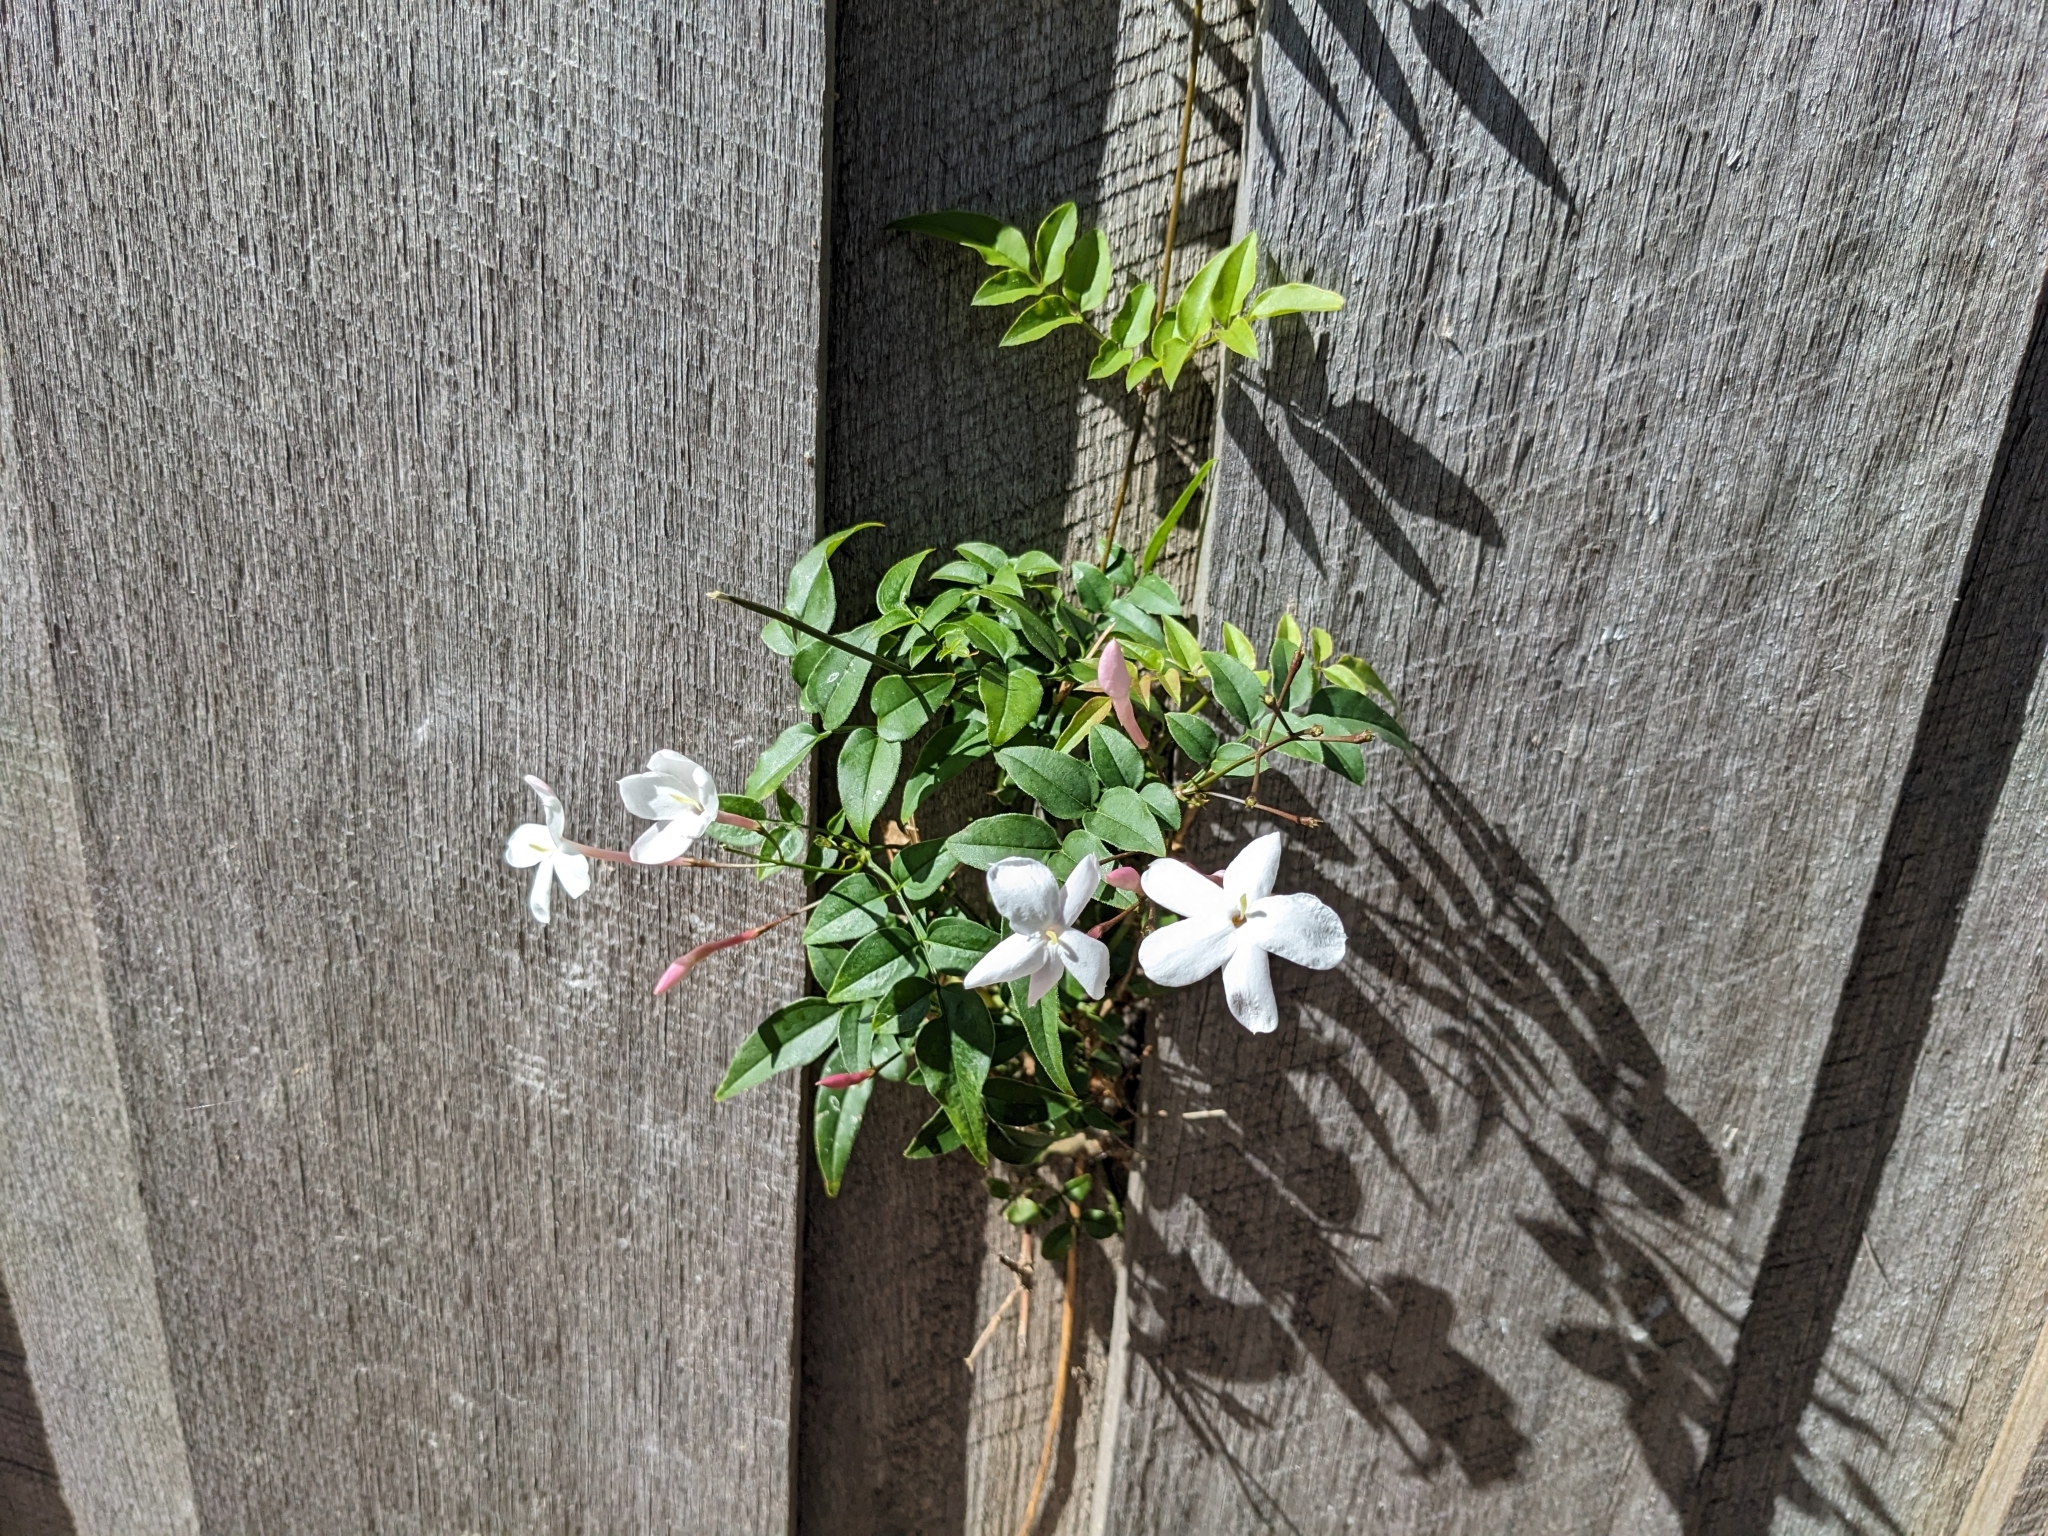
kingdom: Plantae
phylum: Tracheophyta
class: Magnoliopsida
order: Lamiales
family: Oleaceae
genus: Jasminum
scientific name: Jasminum polyanthum
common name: Pink jasmine
